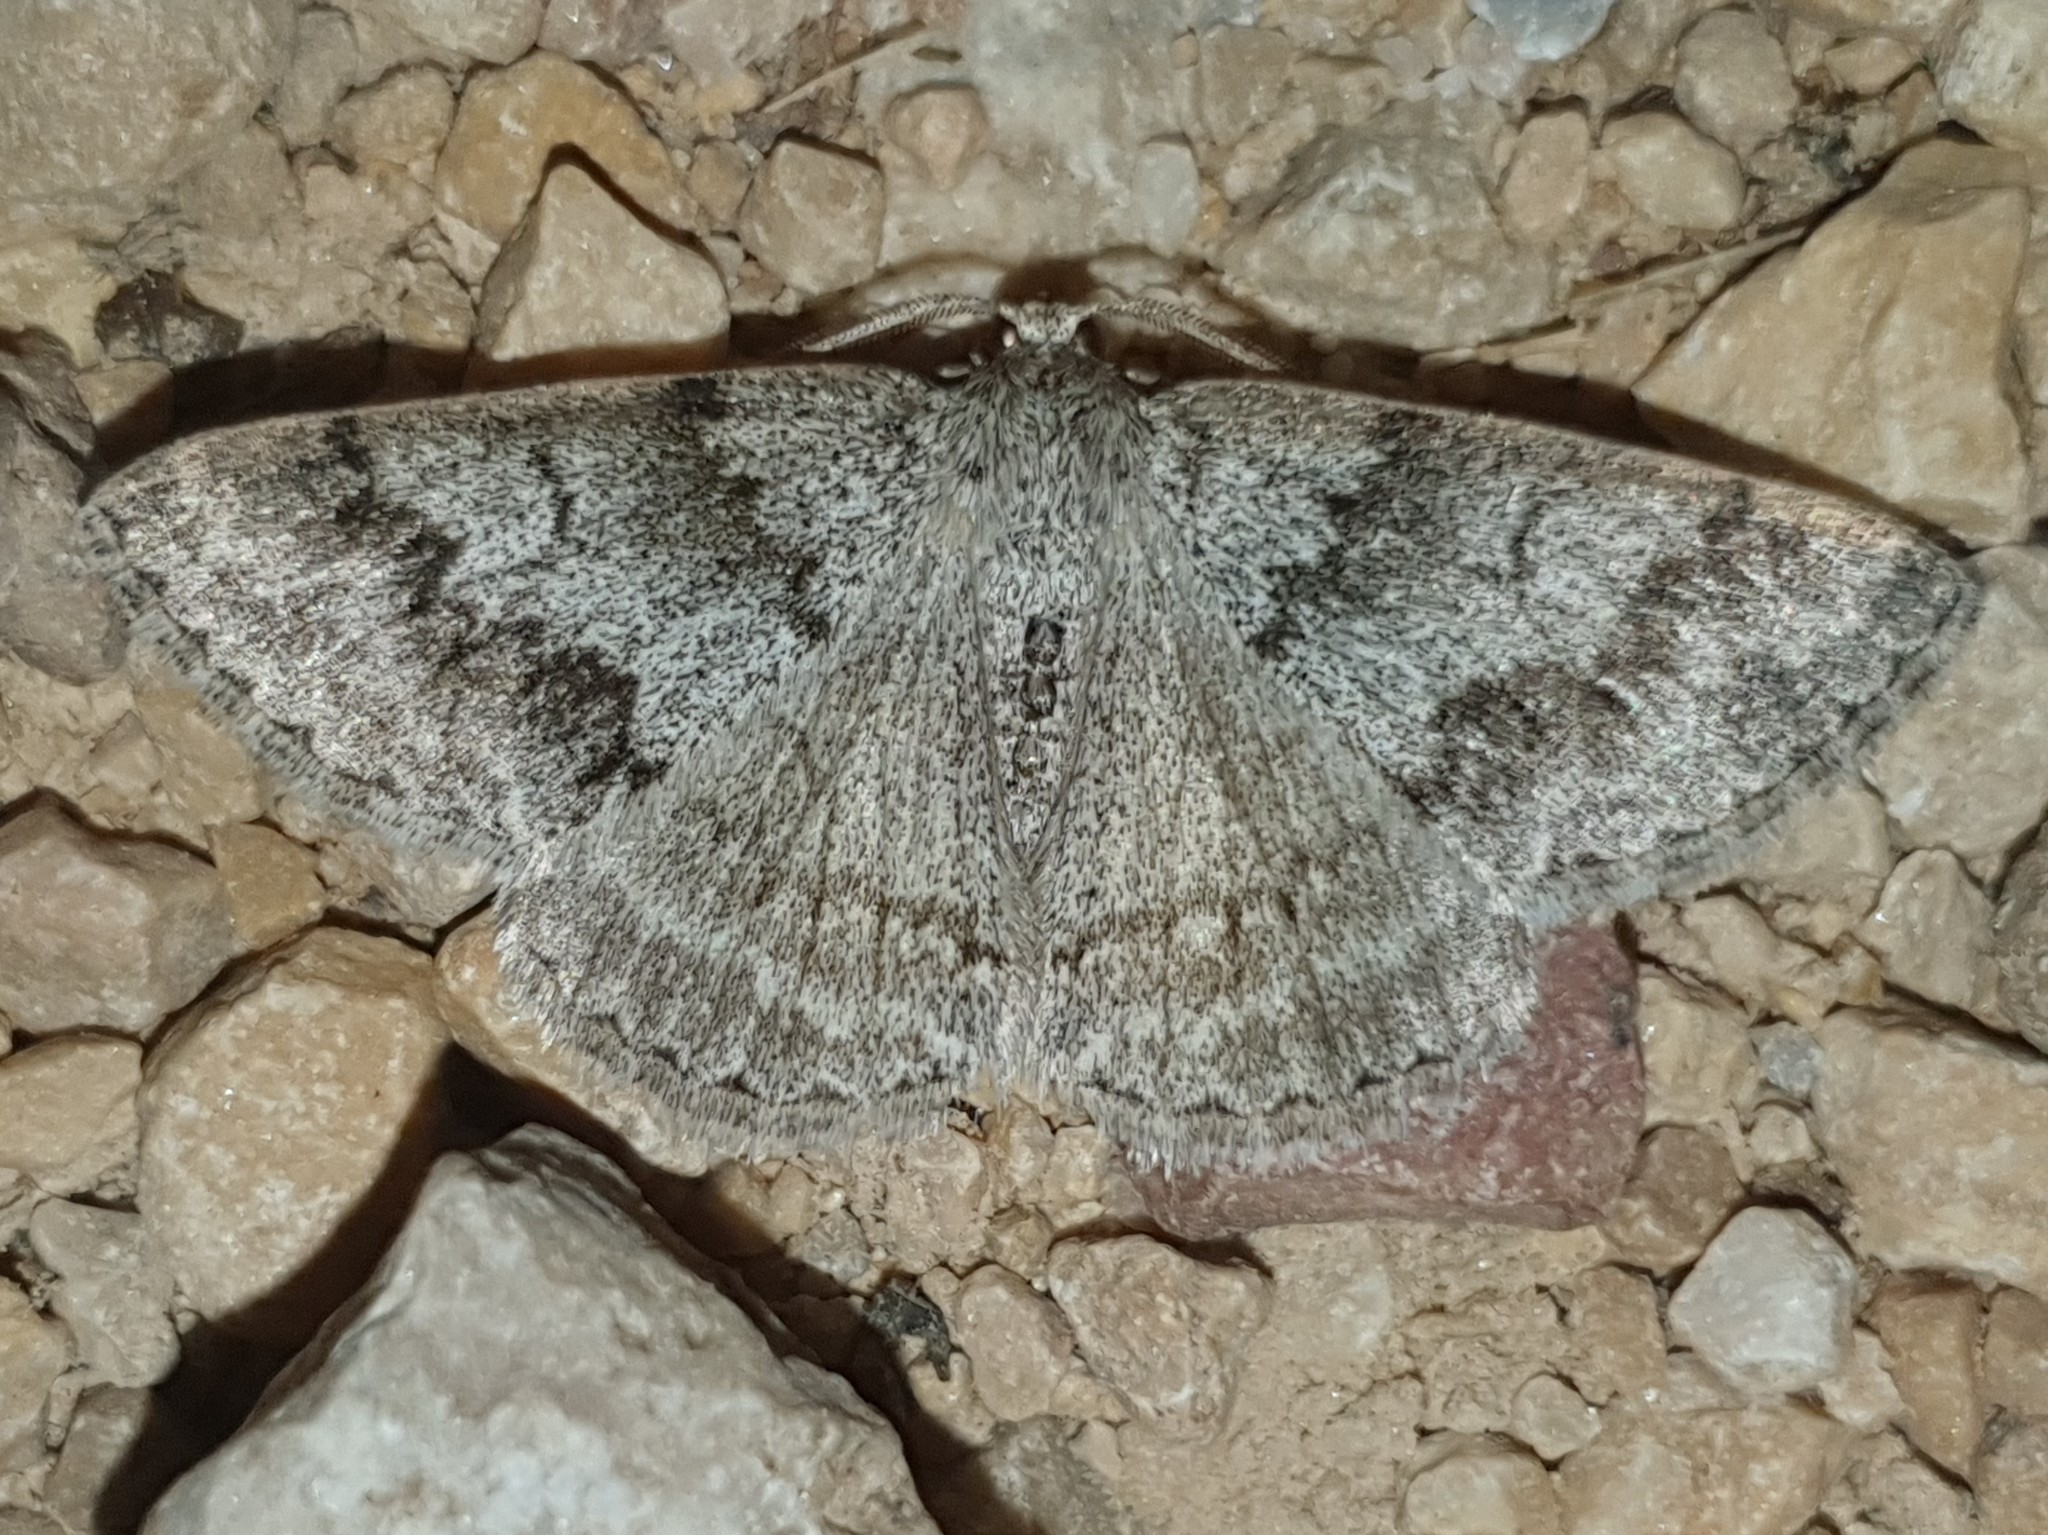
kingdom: Animalia
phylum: Arthropoda
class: Insecta
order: Lepidoptera
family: Geometridae
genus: Pseudoterpna
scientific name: Pseudoterpna coronillaria
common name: Jersey emerald
